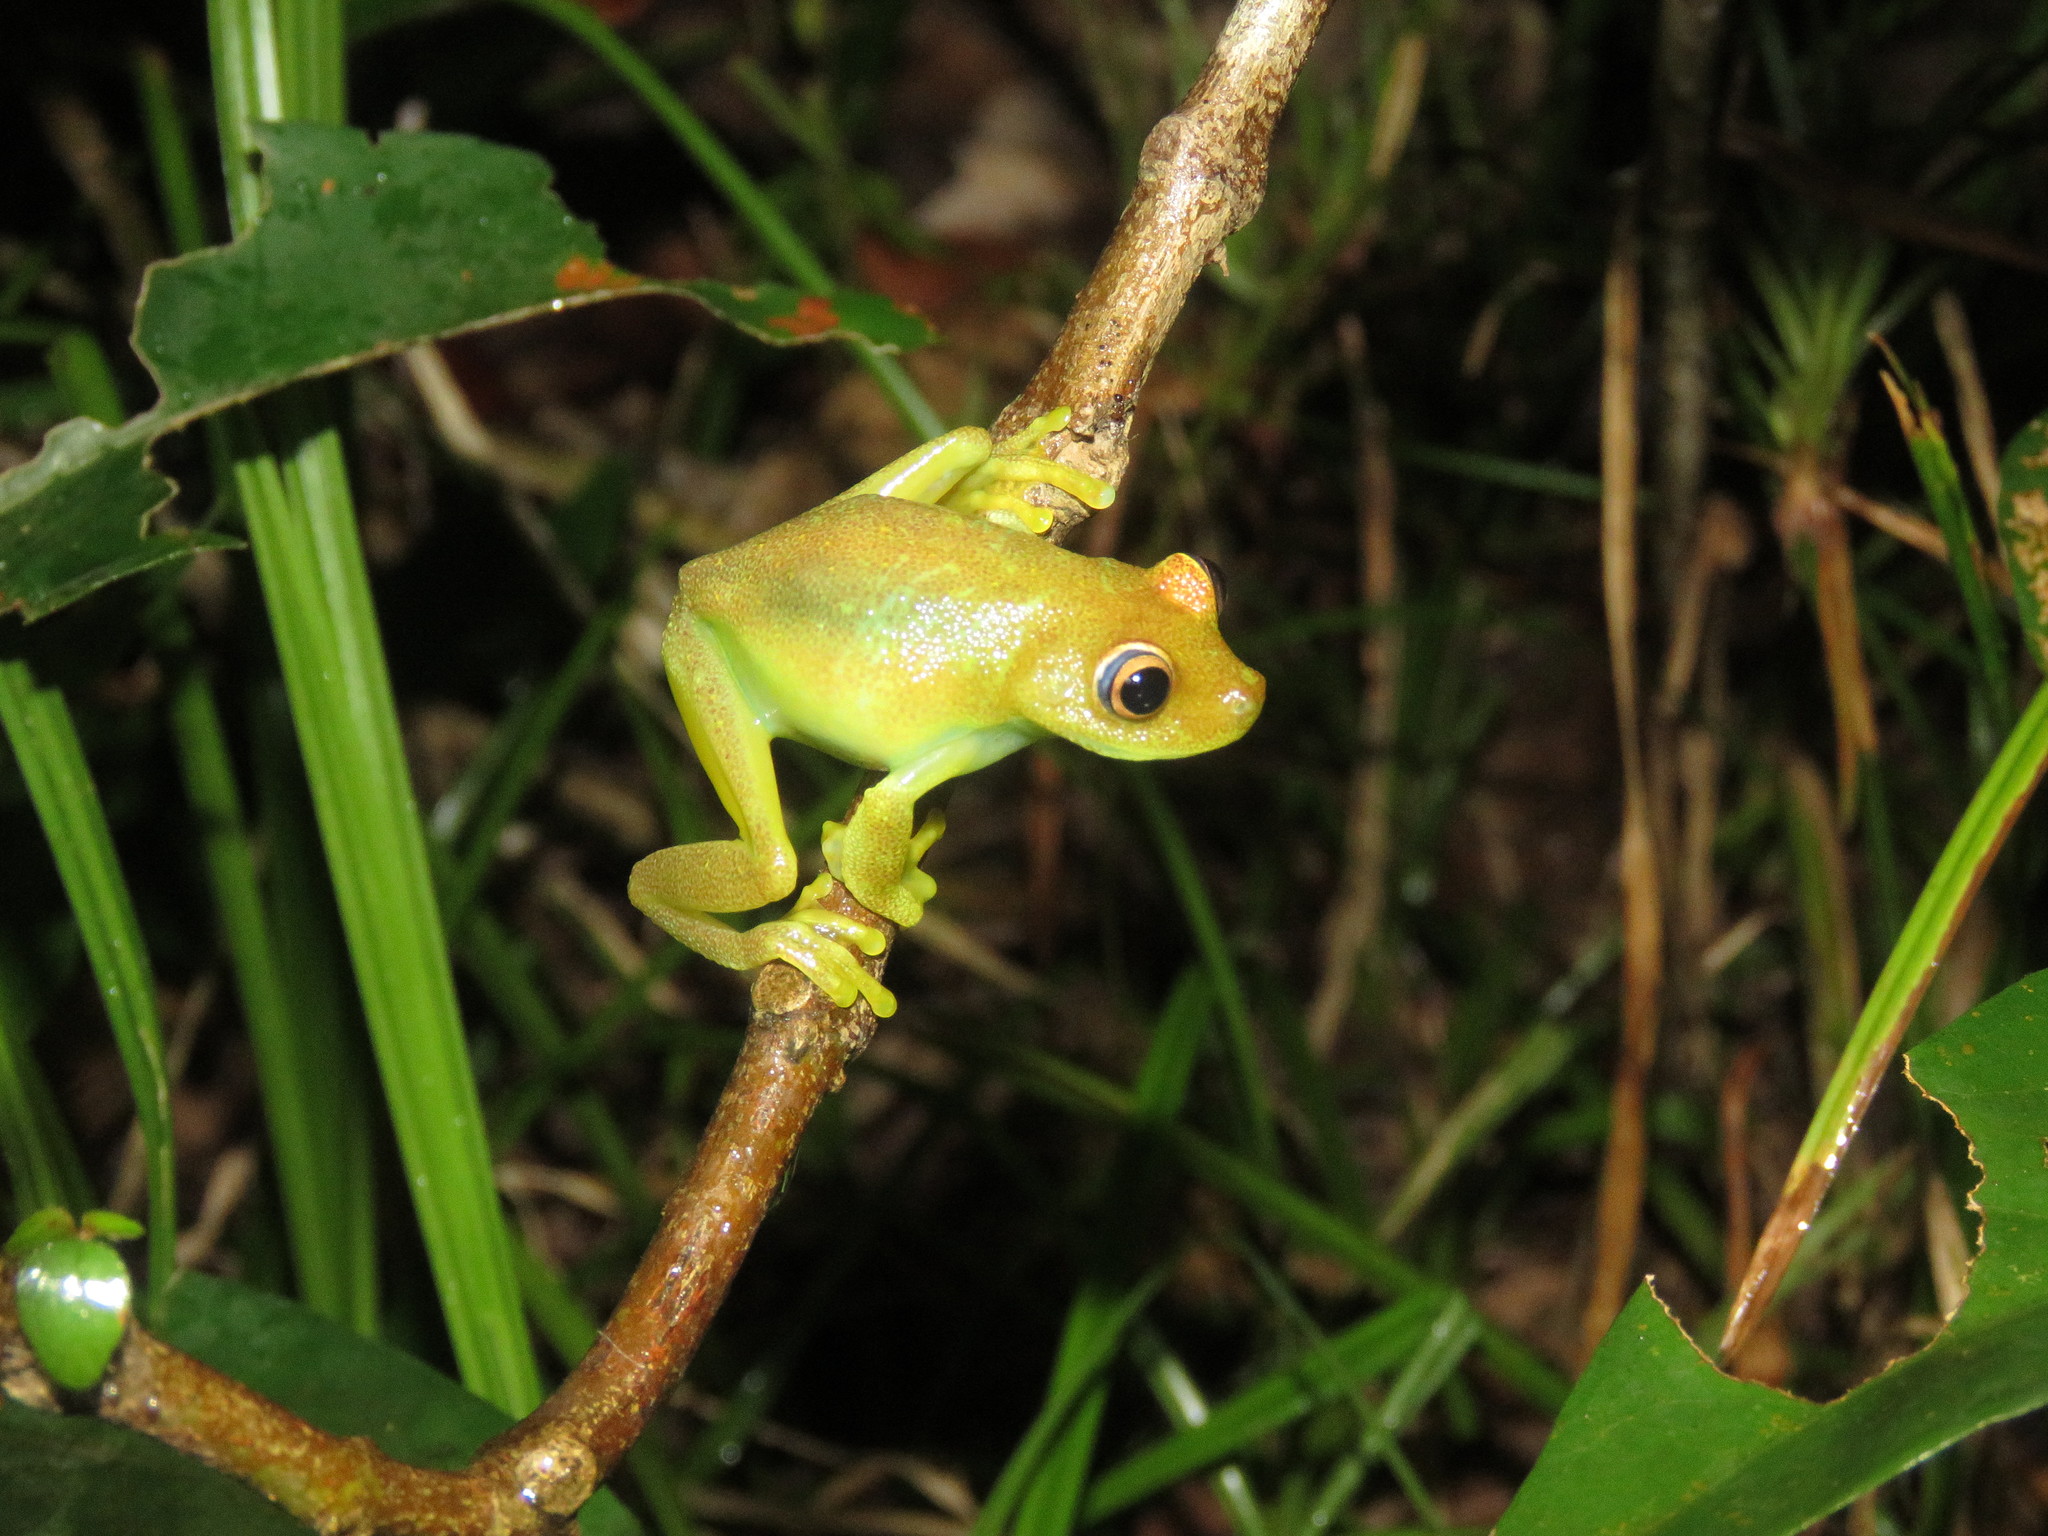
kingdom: Animalia
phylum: Chordata
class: Amphibia
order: Anura
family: Hylidae
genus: Boana
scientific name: Boana cinerascens
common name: Demerara falls treefrog
